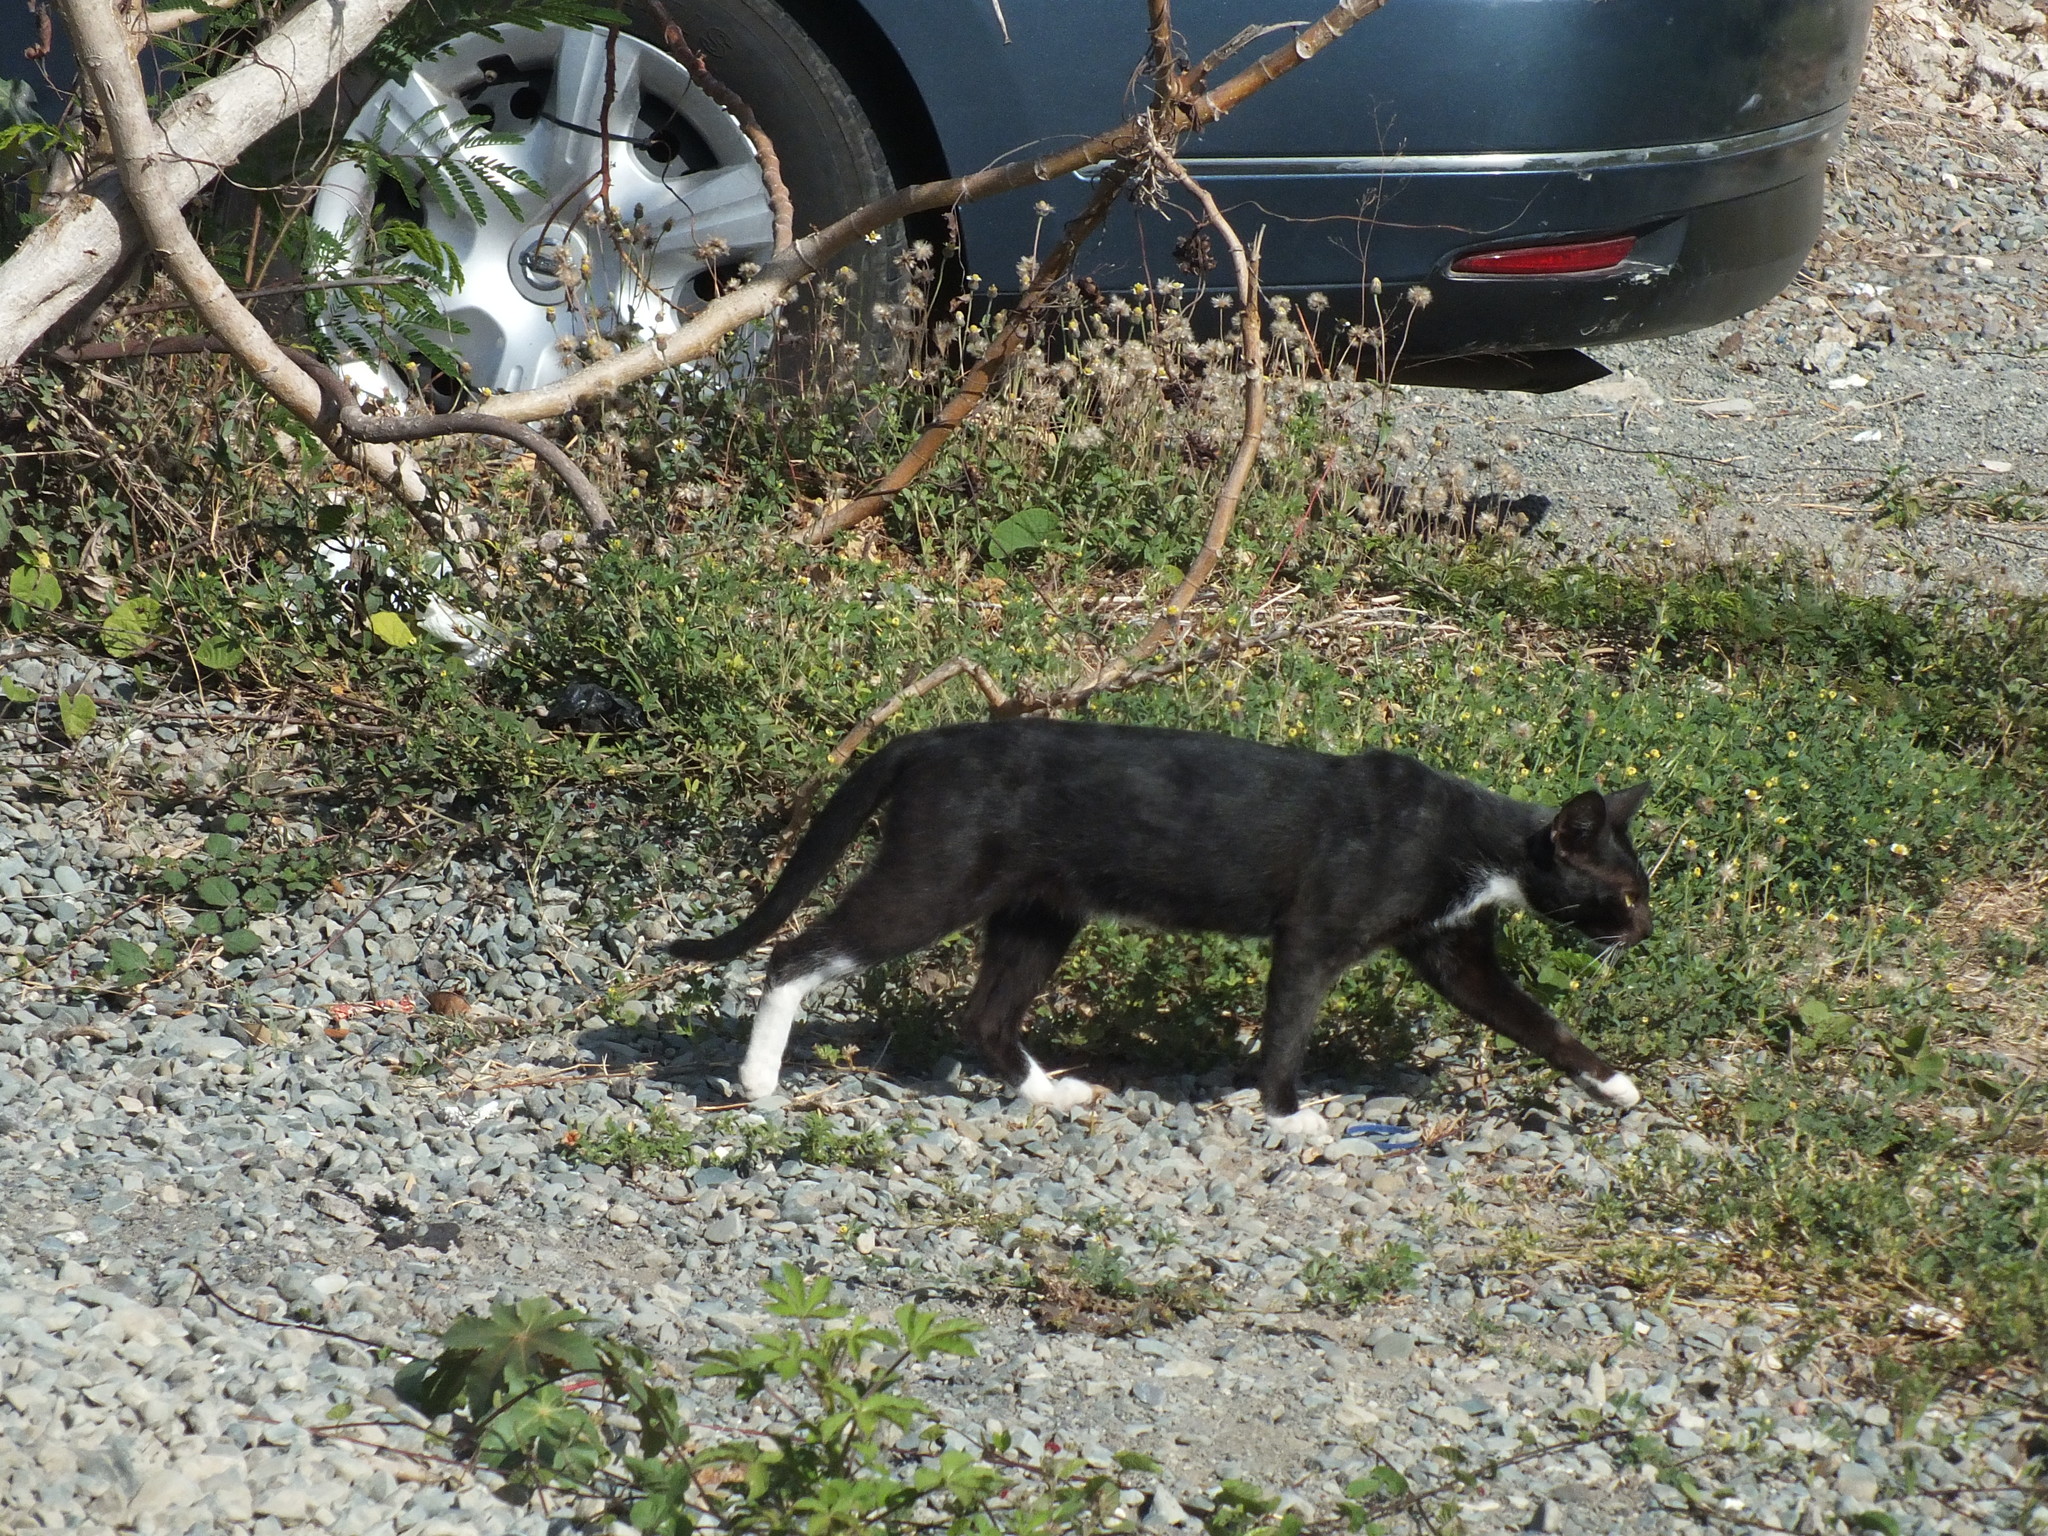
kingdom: Animalia
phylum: Chordata
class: Mammalia
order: Carnivora
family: Felidae
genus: Felis
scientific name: Felis catus
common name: Domestic cat
